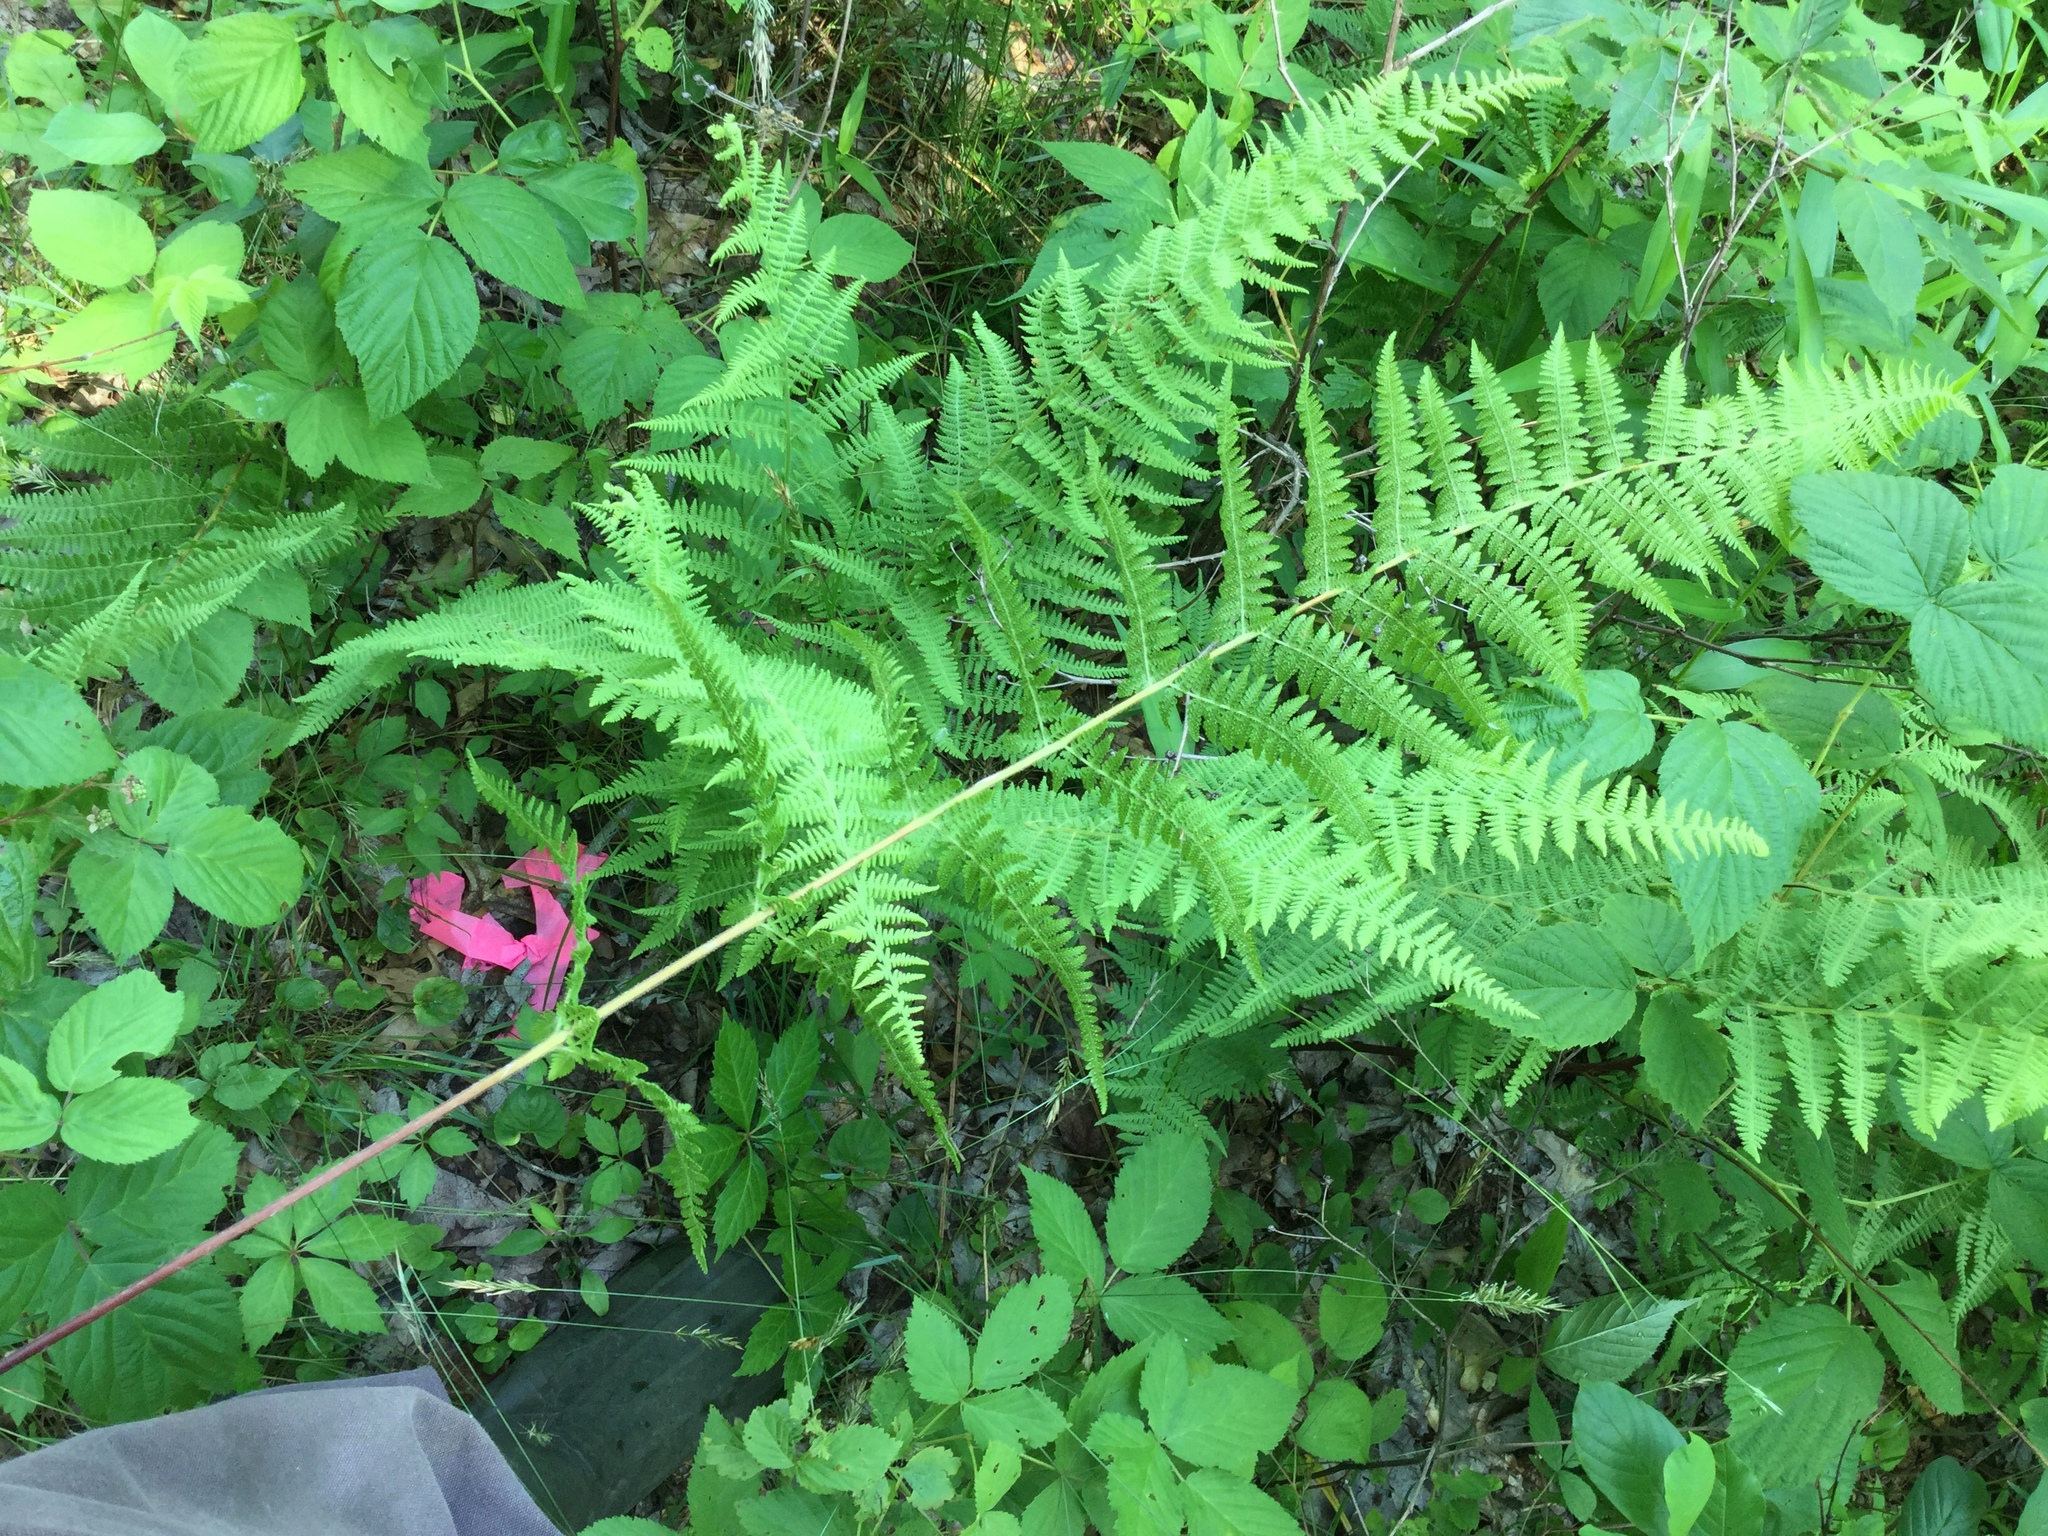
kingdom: Plantae
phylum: Tracheophyta
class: Polypodiopsida
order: Polypodiales
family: Dennstaedtiaceae
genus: Sitobolium
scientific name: Sitobolium punctilobum
